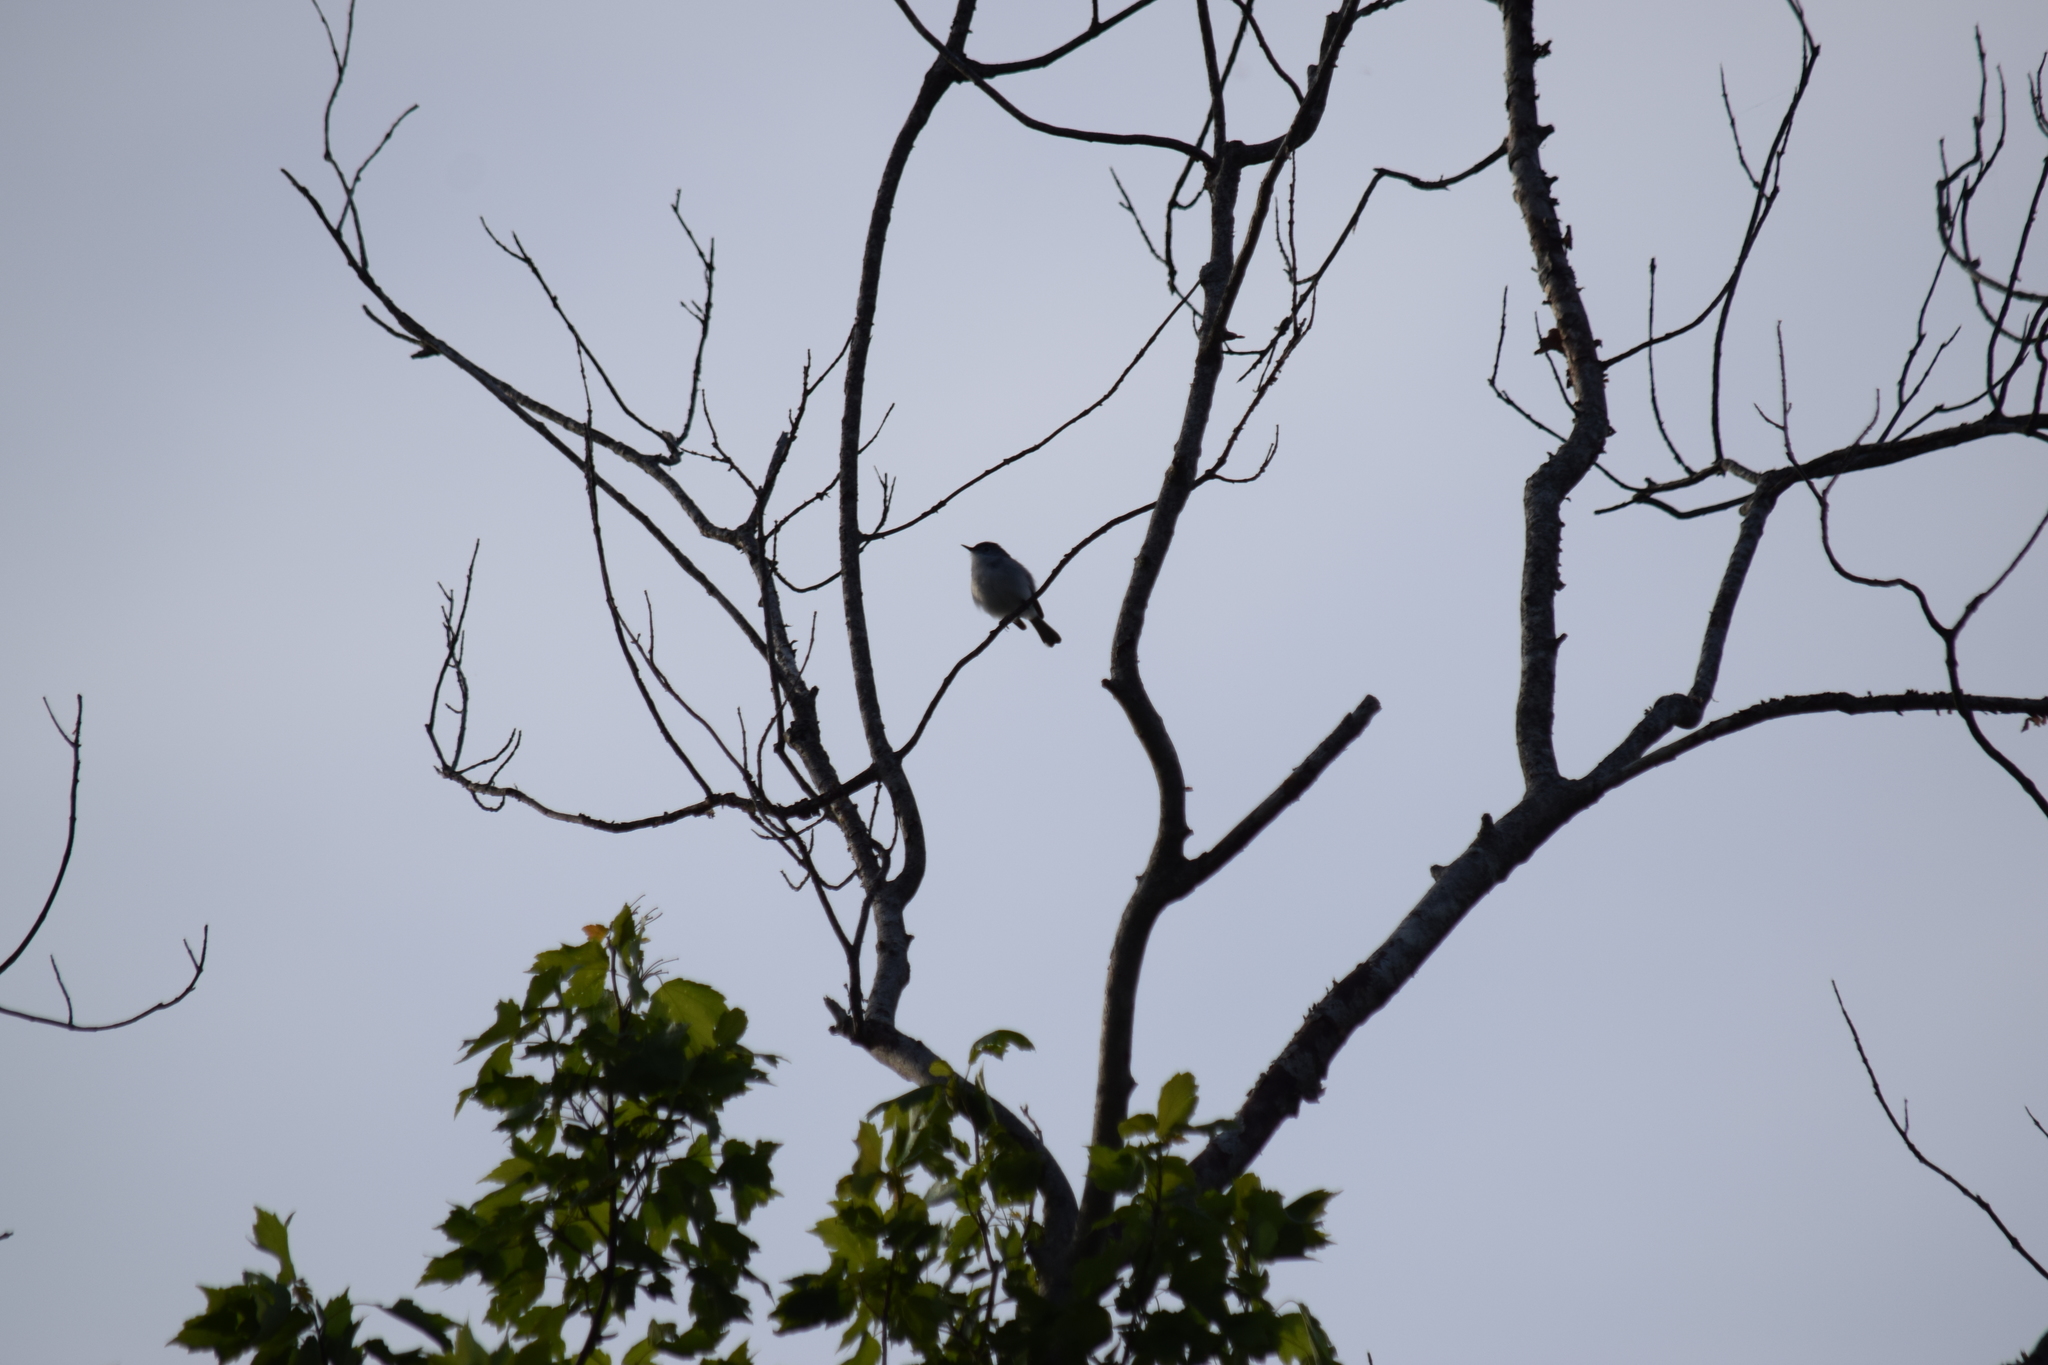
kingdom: Animalia
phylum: Chordata
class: Aves
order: Passeriformes
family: Polioptilidae
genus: Polioptila
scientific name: Polioptila caerulea
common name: Blue-gray gnatcatcher
